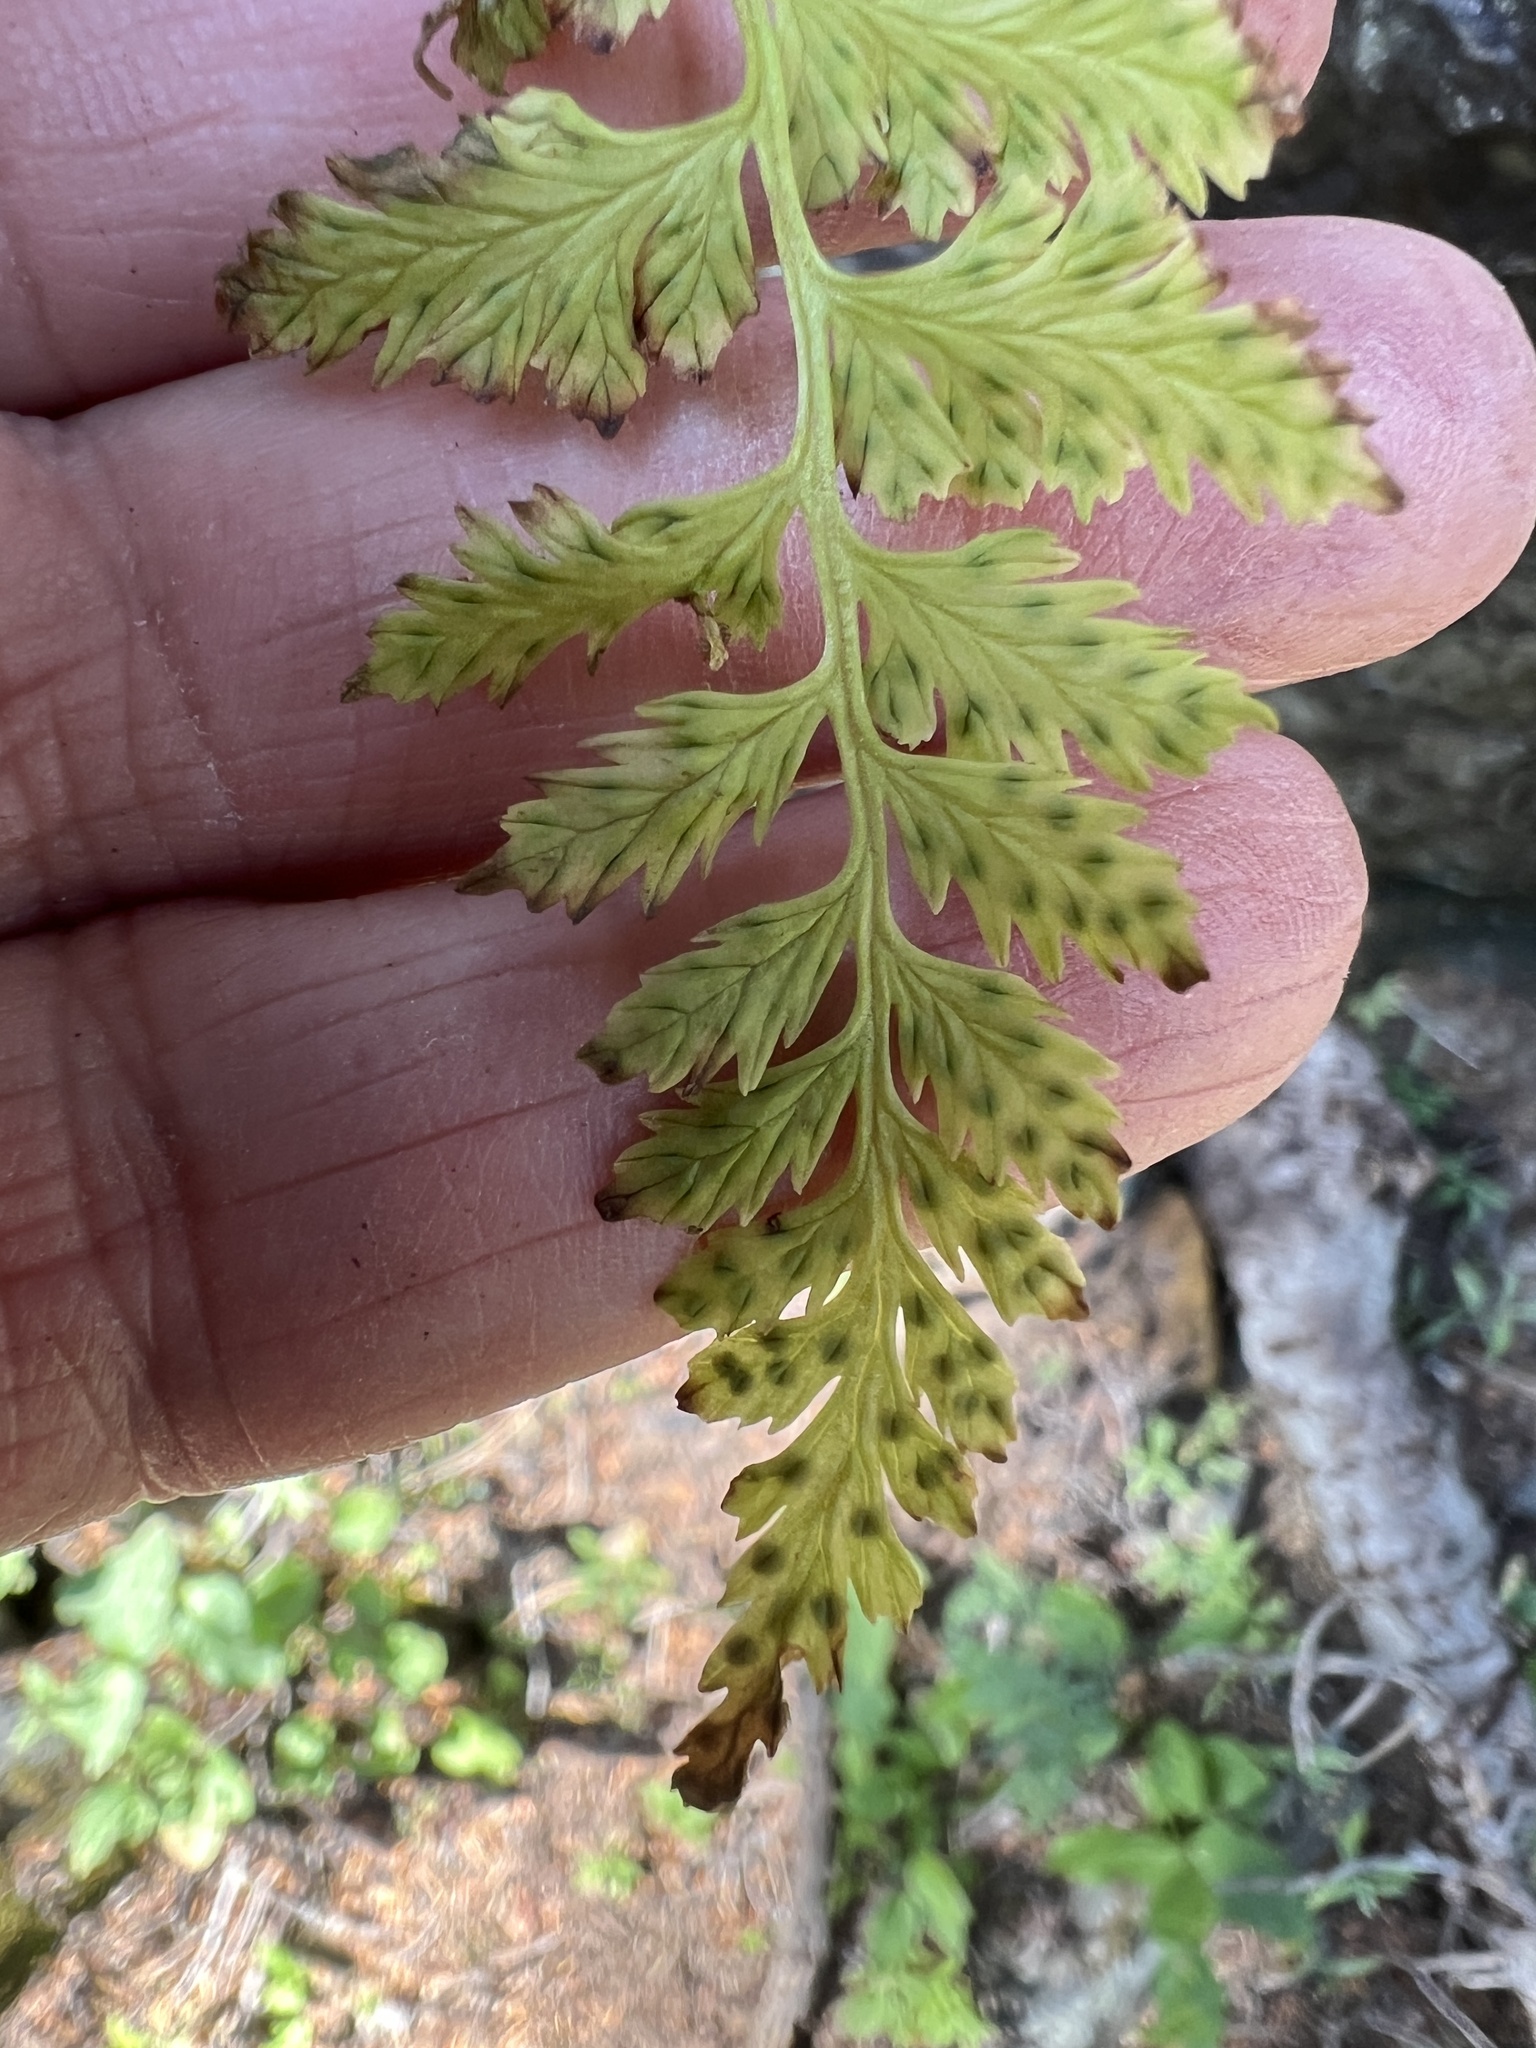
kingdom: Plantae
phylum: Tracheophyta
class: Polypodiopsida
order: Polypodiales
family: Cystopteridaceae
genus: Cystopteris
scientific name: Cystopteris fragilis
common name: Brittle bladder fern
